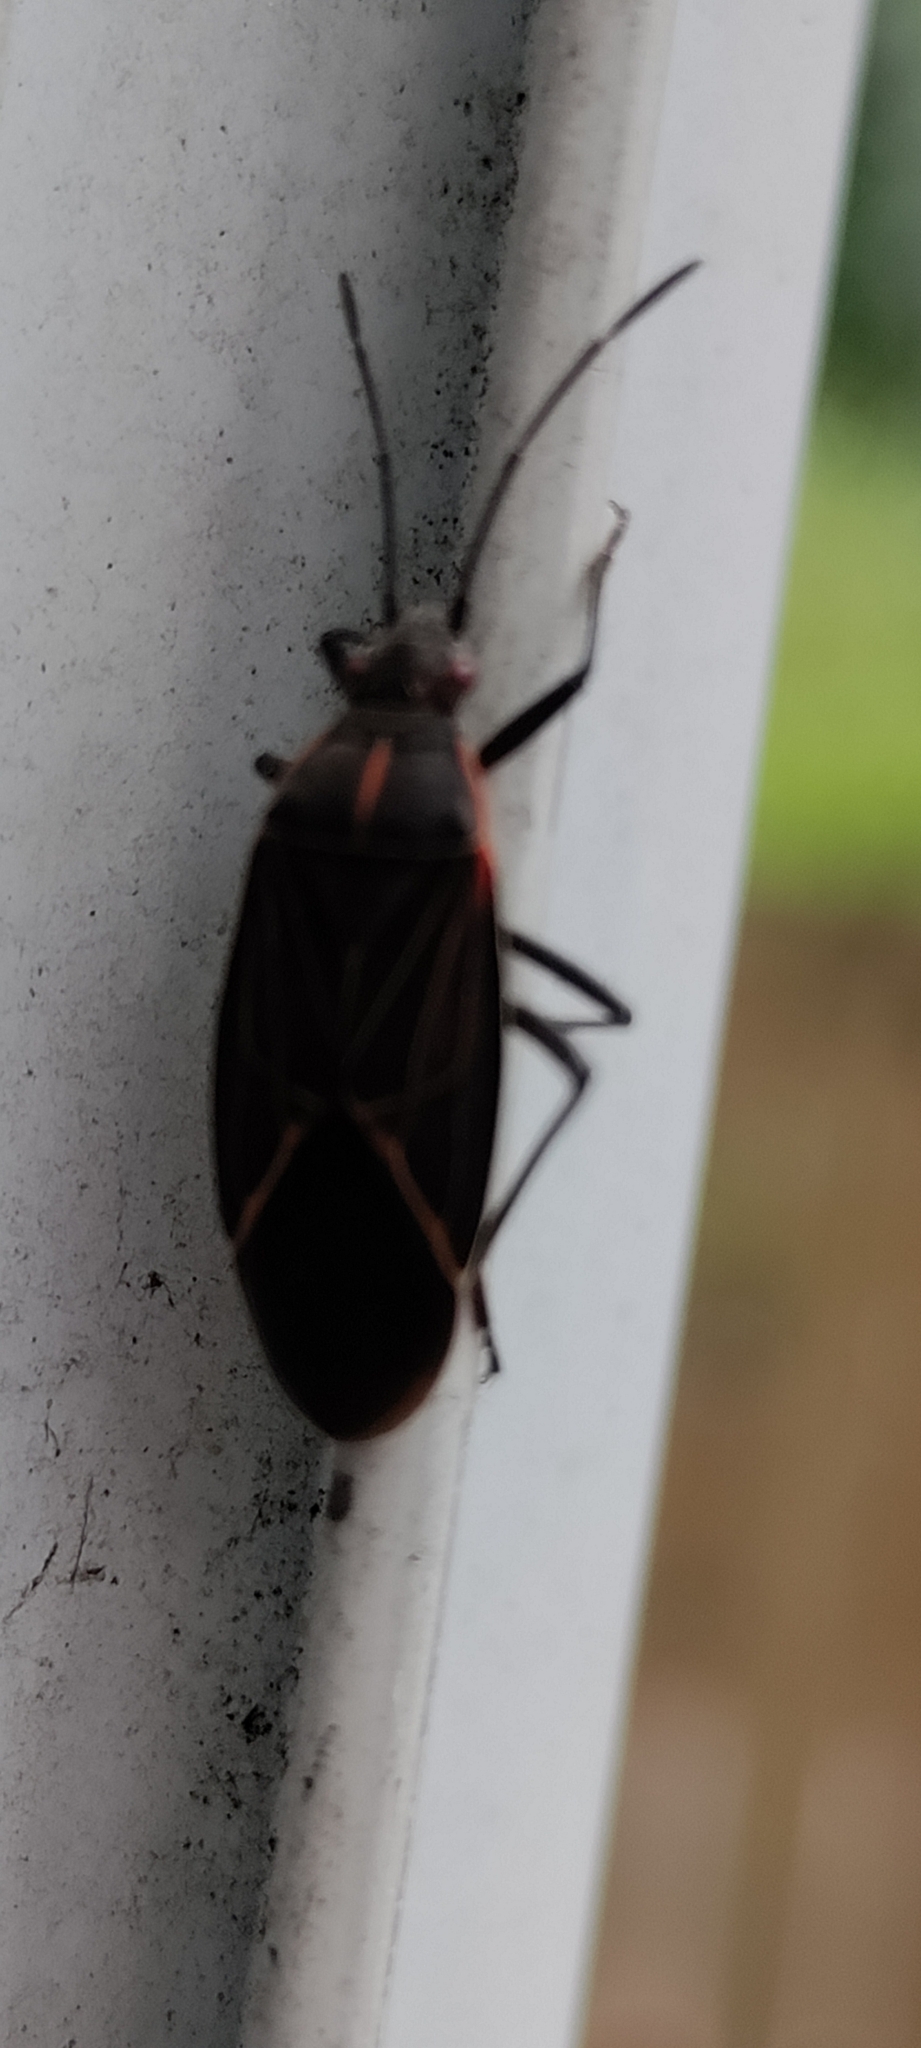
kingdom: Animalia
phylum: Arthropoda
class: Insecta
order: Hemiptera
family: Rhopalidae
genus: Boisea
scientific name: Boisea rubrolineata
